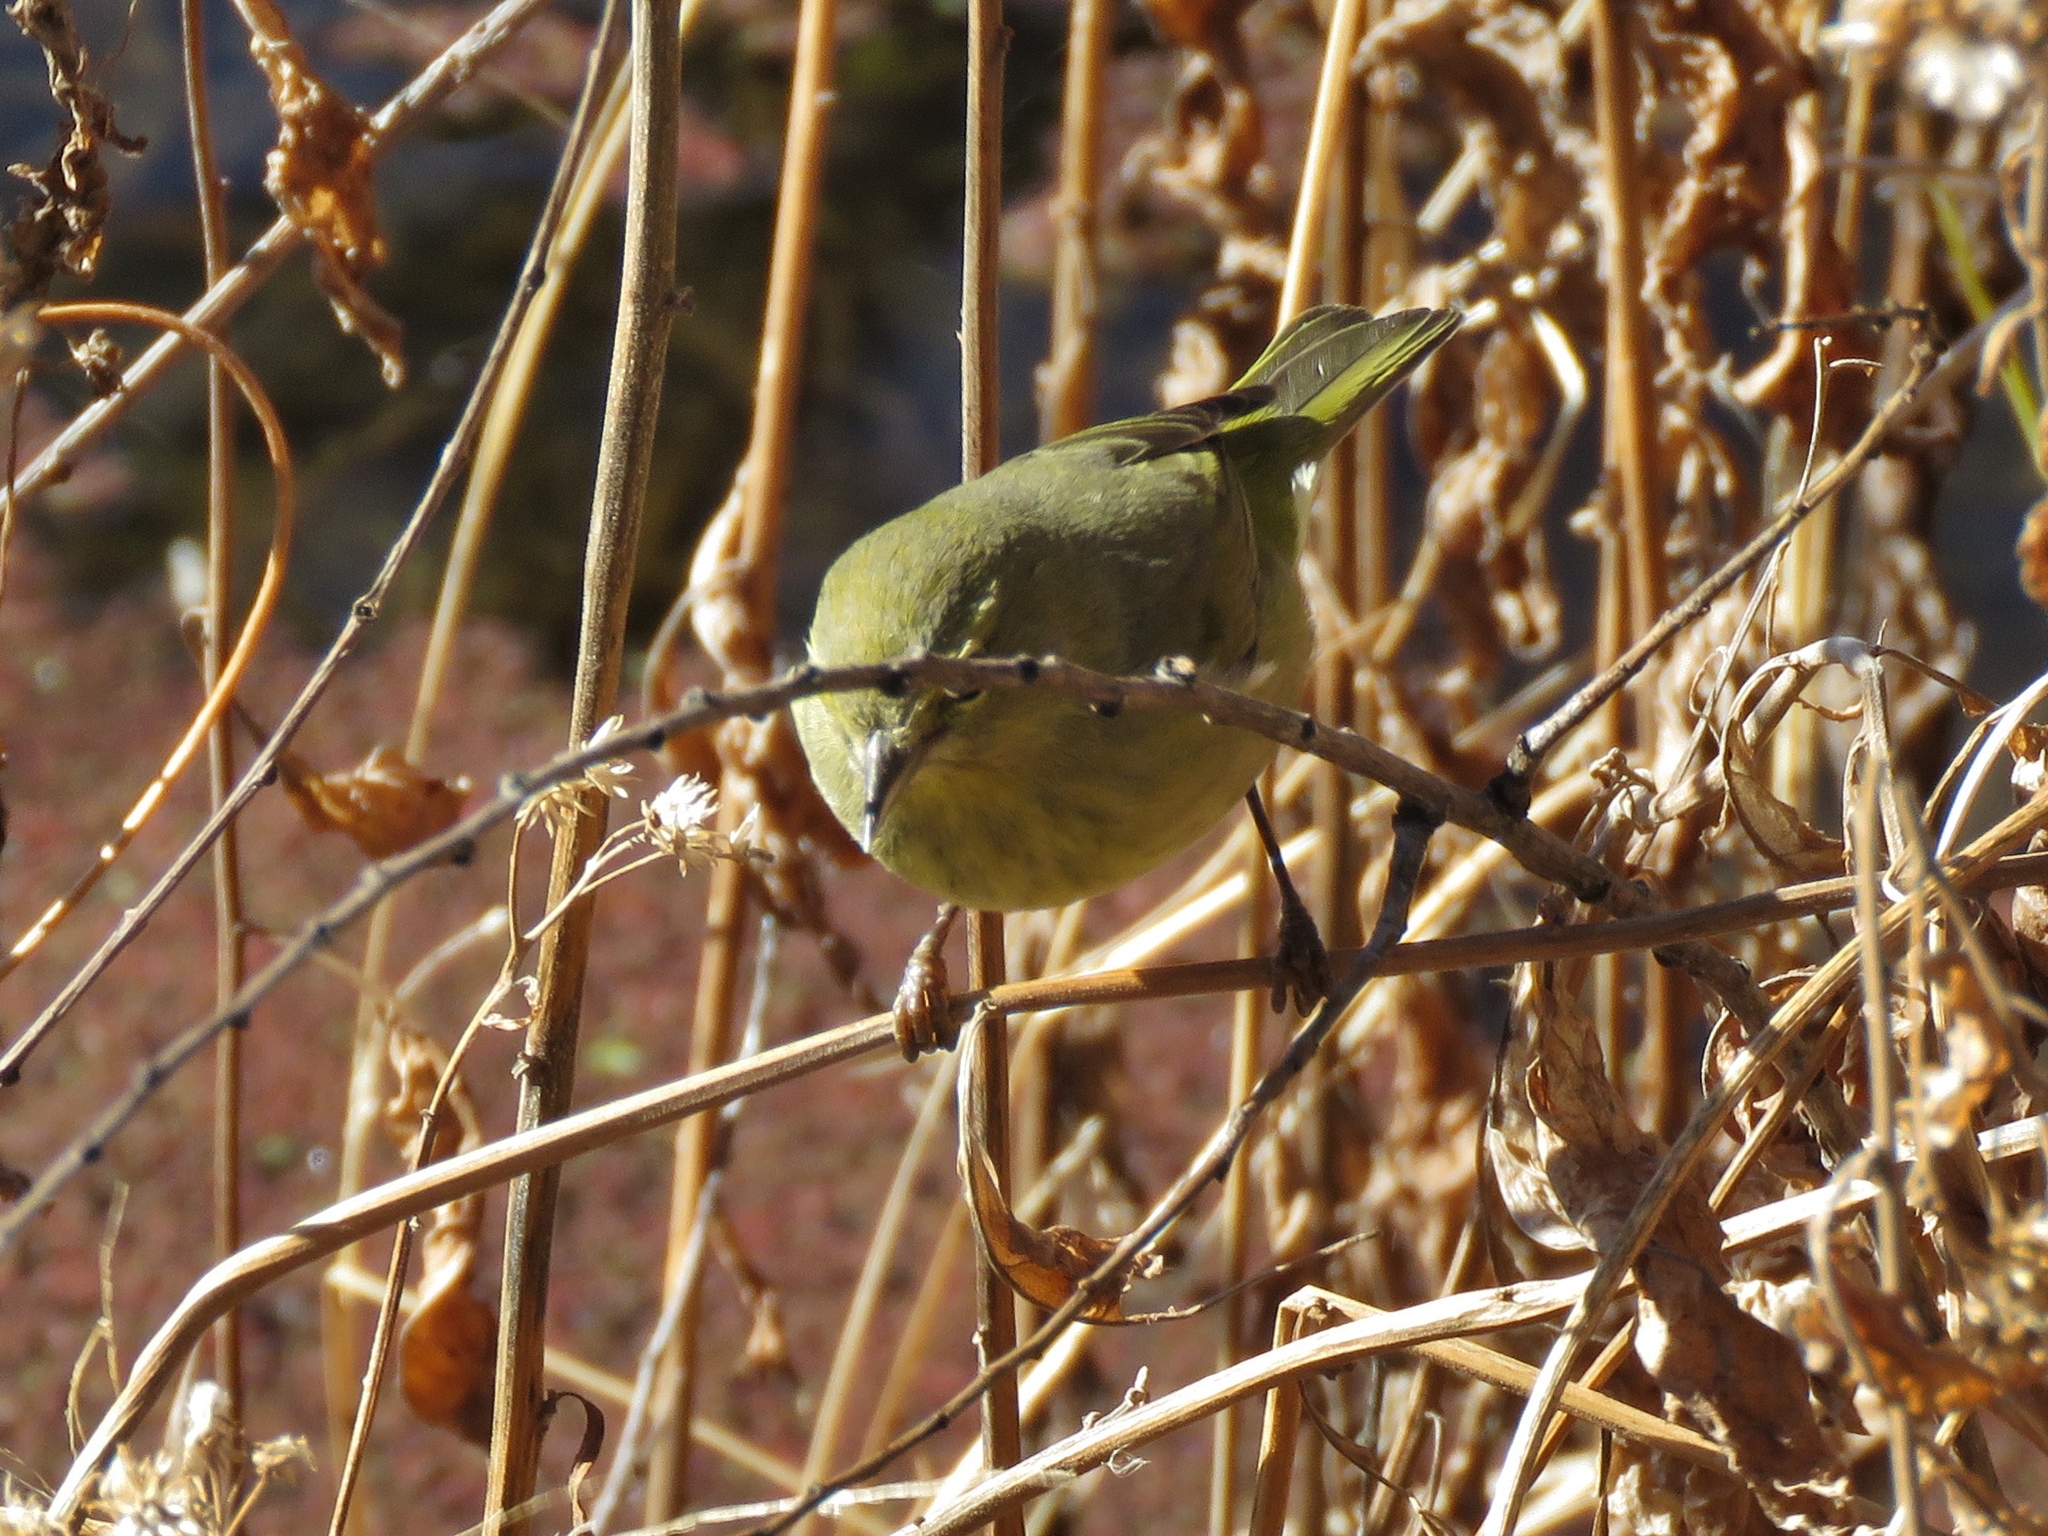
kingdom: Animalia
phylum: Chordata
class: Aves
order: Passeriformes
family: Parulidae
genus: Leiothlypis
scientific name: Leiothlypis celata
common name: Orange-crowned warbler
